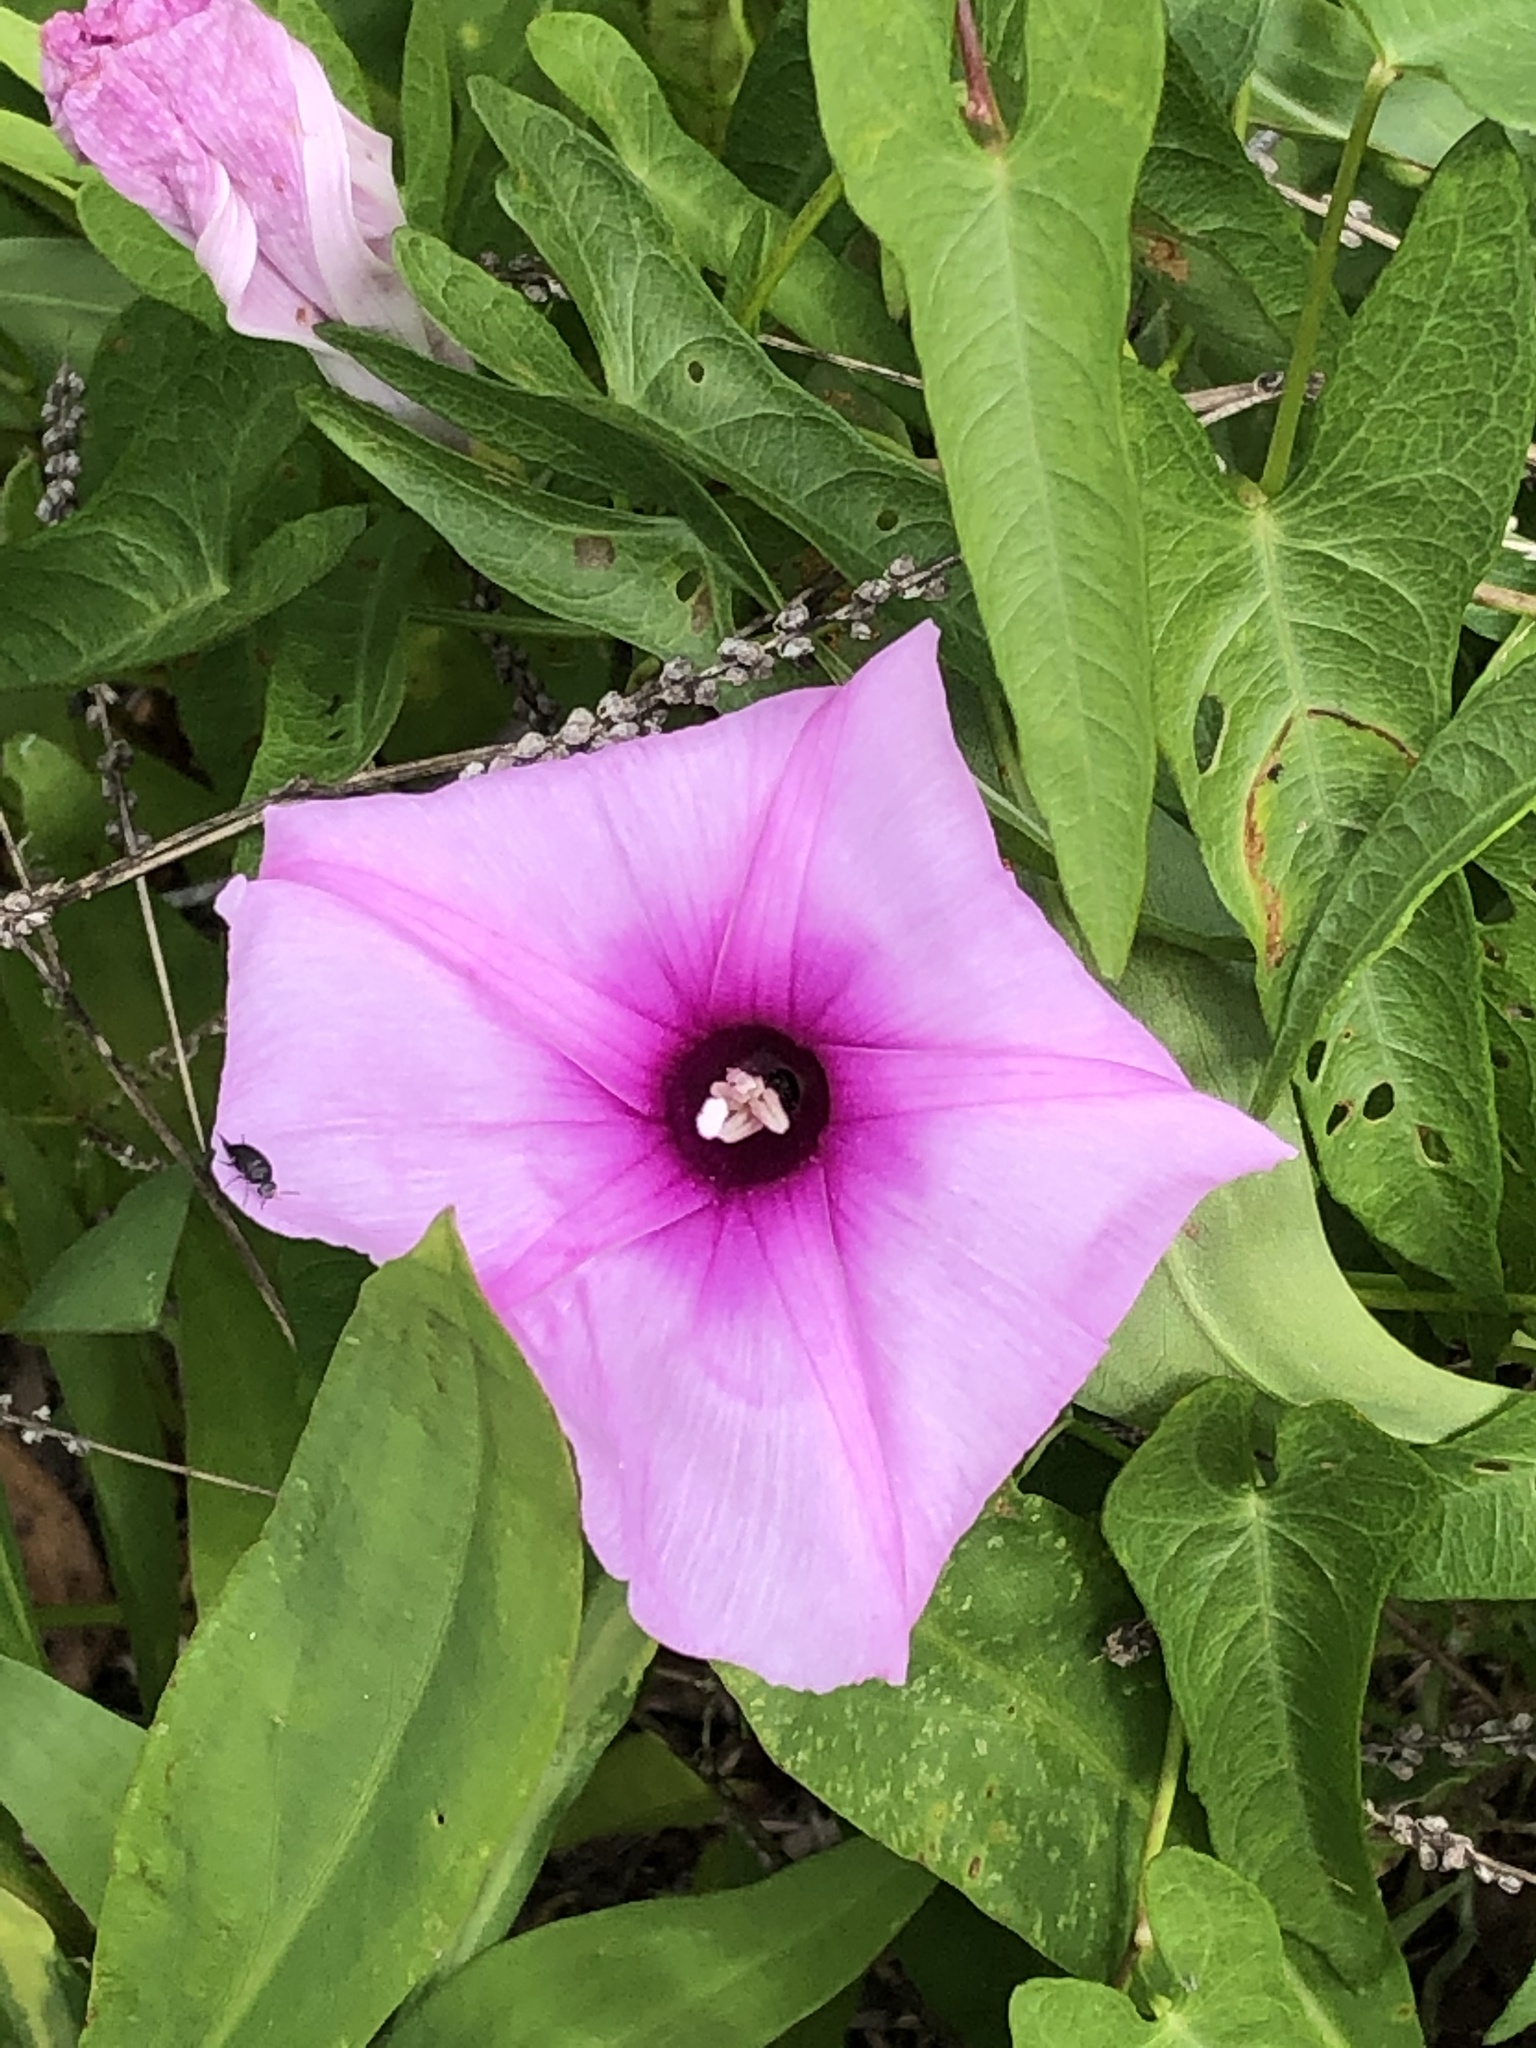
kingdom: Plantae
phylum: Tracheophyta
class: Magnoliopsida
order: Solanales
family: Convolvulaceae
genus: Ipomoea
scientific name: Ipomoea sagittata
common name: Saltmarsh morning glory
